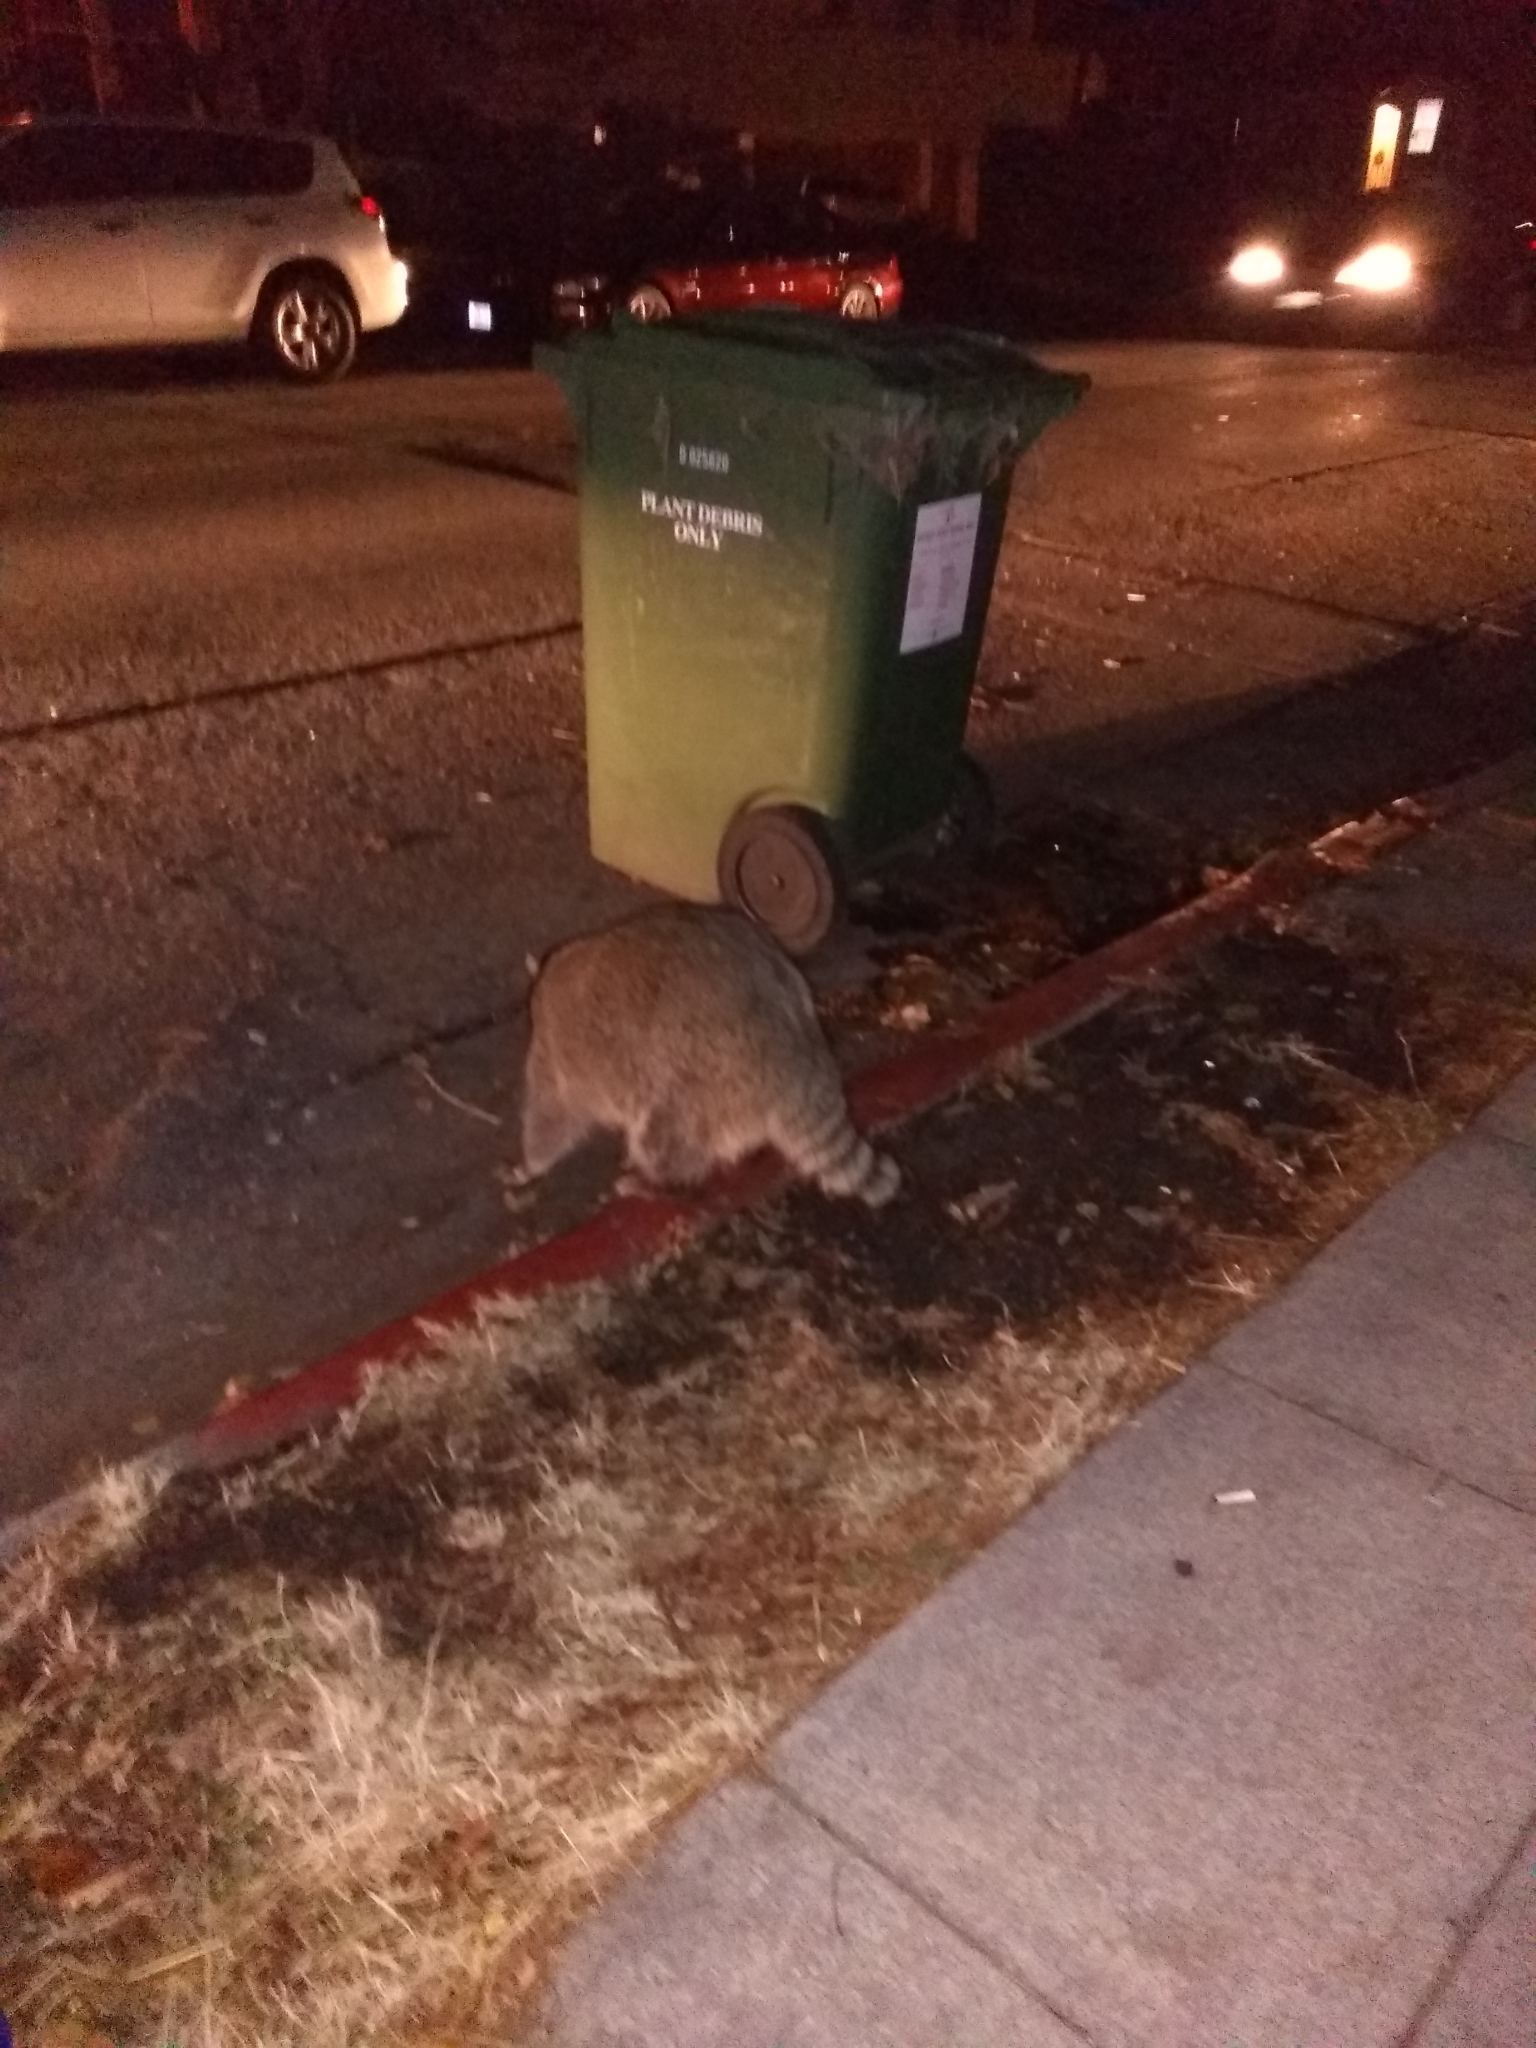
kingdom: Animalia
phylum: Chordata
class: Mammalia
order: Carnivora
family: Procyonidae
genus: Procyon
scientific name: Procyon lotor
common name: Raccoon
